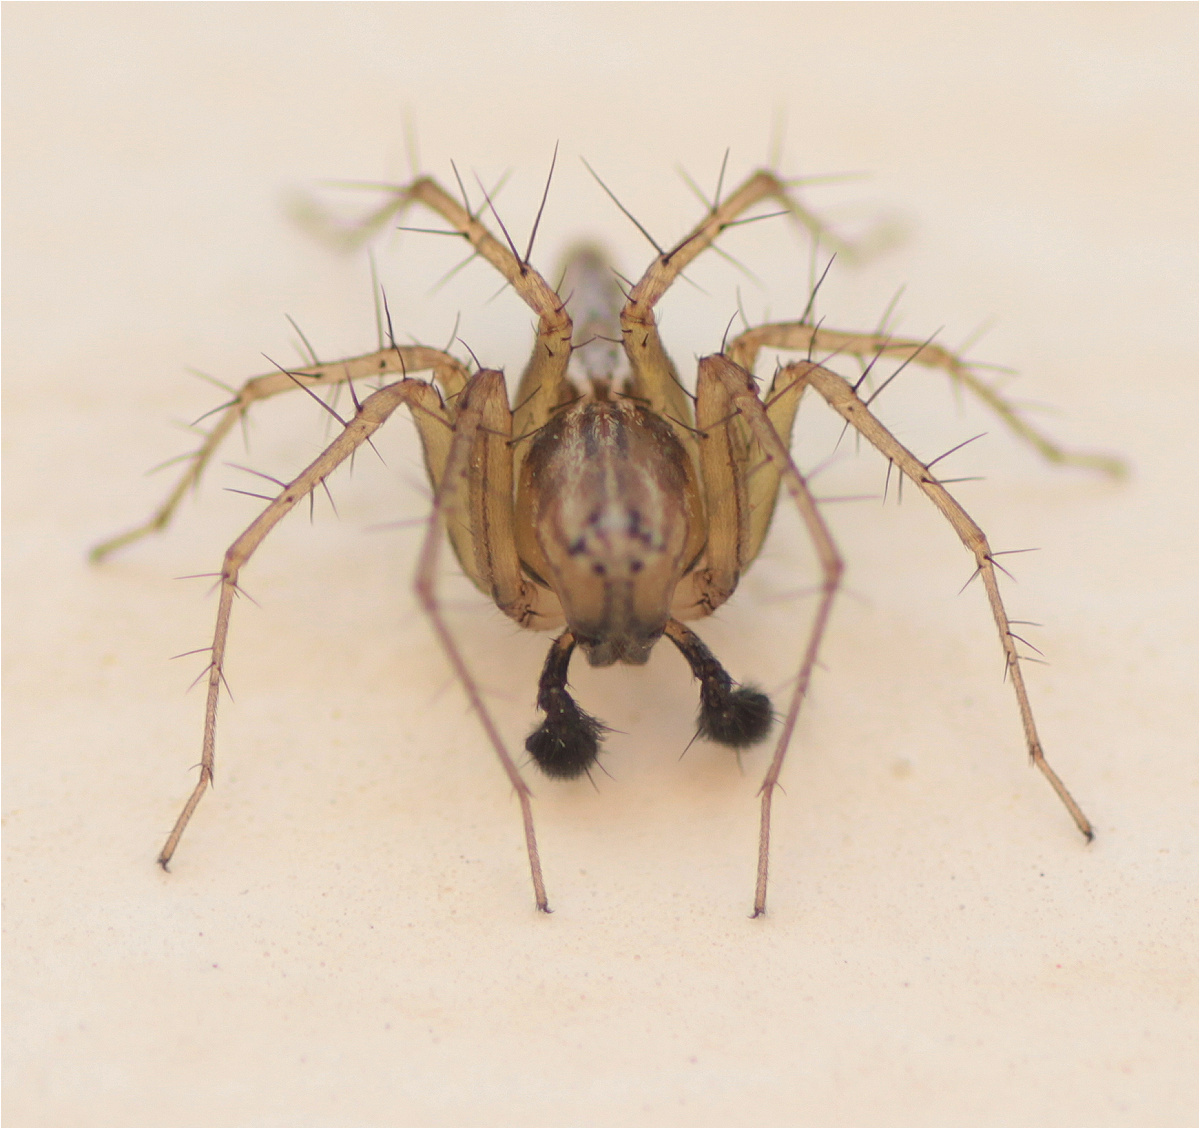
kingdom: Animalia
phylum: Arthropoda
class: Arachnida
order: Araneae
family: Oxyopidae
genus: Oxyopes
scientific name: Oxyopes salticus
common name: Lynx spiders
